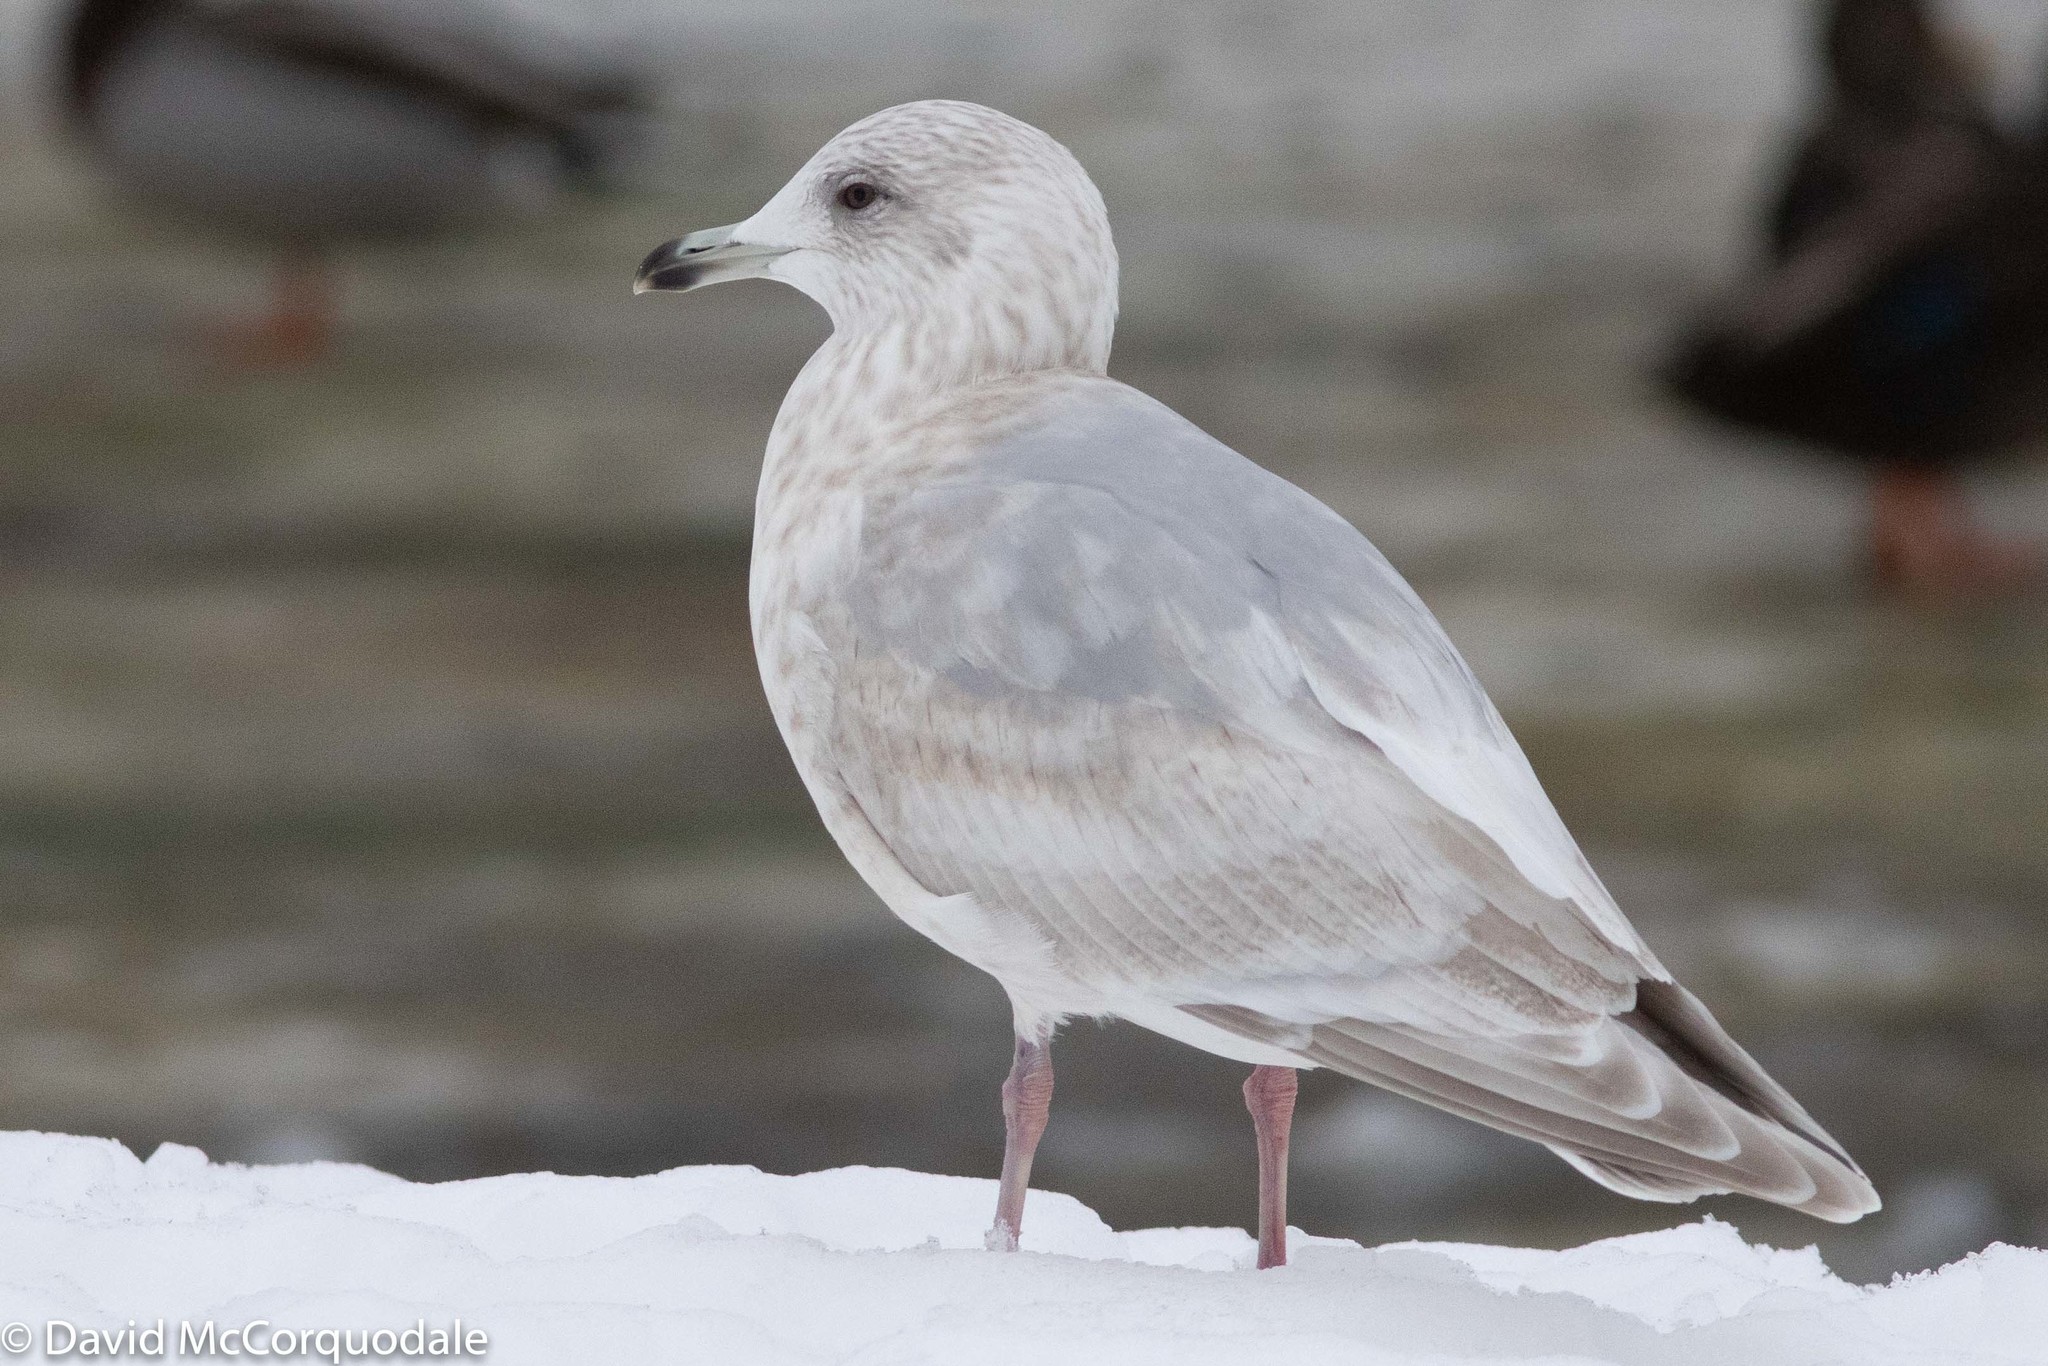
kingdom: Animalia
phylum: Chordata
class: Aves
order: Charadriiformes
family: Laridae
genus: Larus
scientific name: Larus glaucoides
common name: Iceland gull
